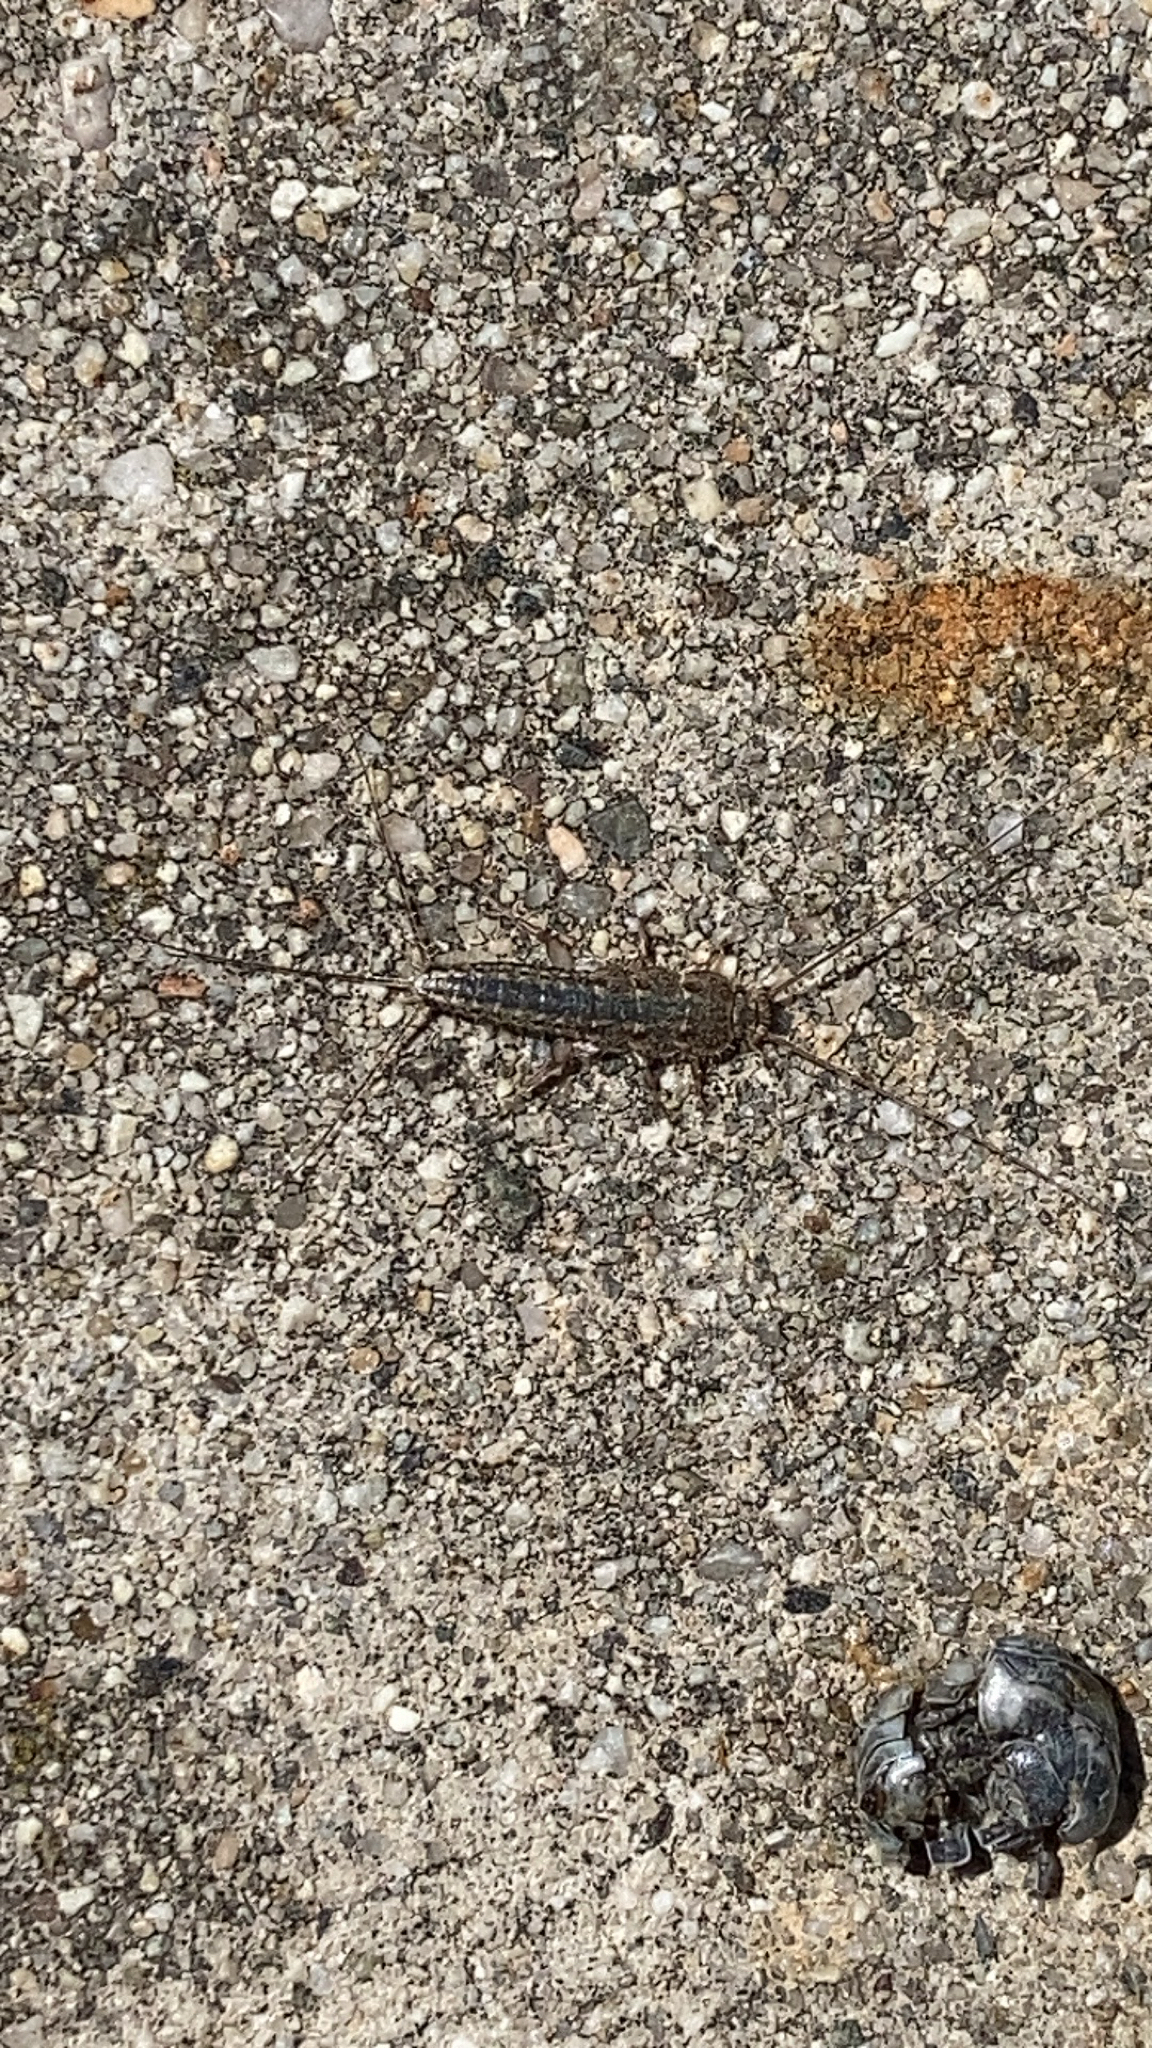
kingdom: Animalia
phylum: Arthropoda
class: Insecta
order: Zygentoma
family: Lepismatidae
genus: Ctenolepisma
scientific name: Ctenolepisma lineata
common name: Four-lined silverfish
